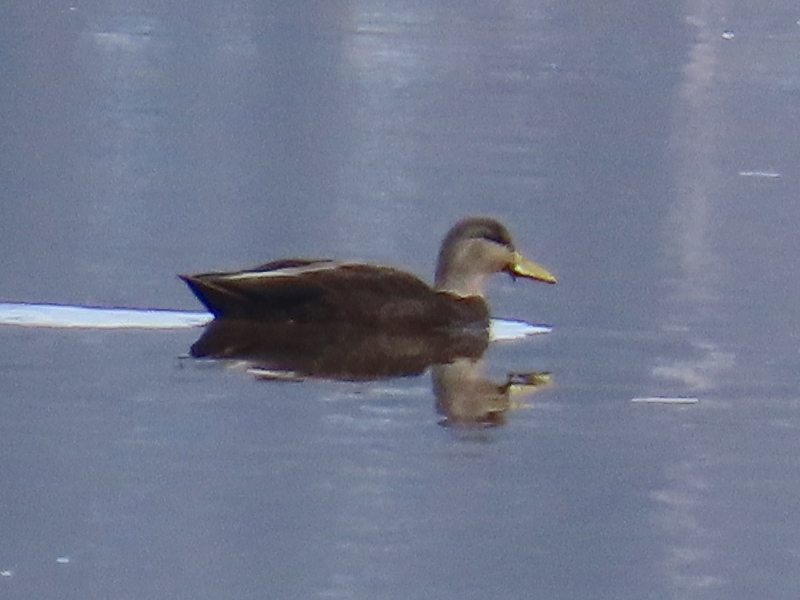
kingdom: Animalia
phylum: Chordata
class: Aves
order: Anseriformes
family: Anatidae
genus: Anas
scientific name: Anas rubripes
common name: American black duck
